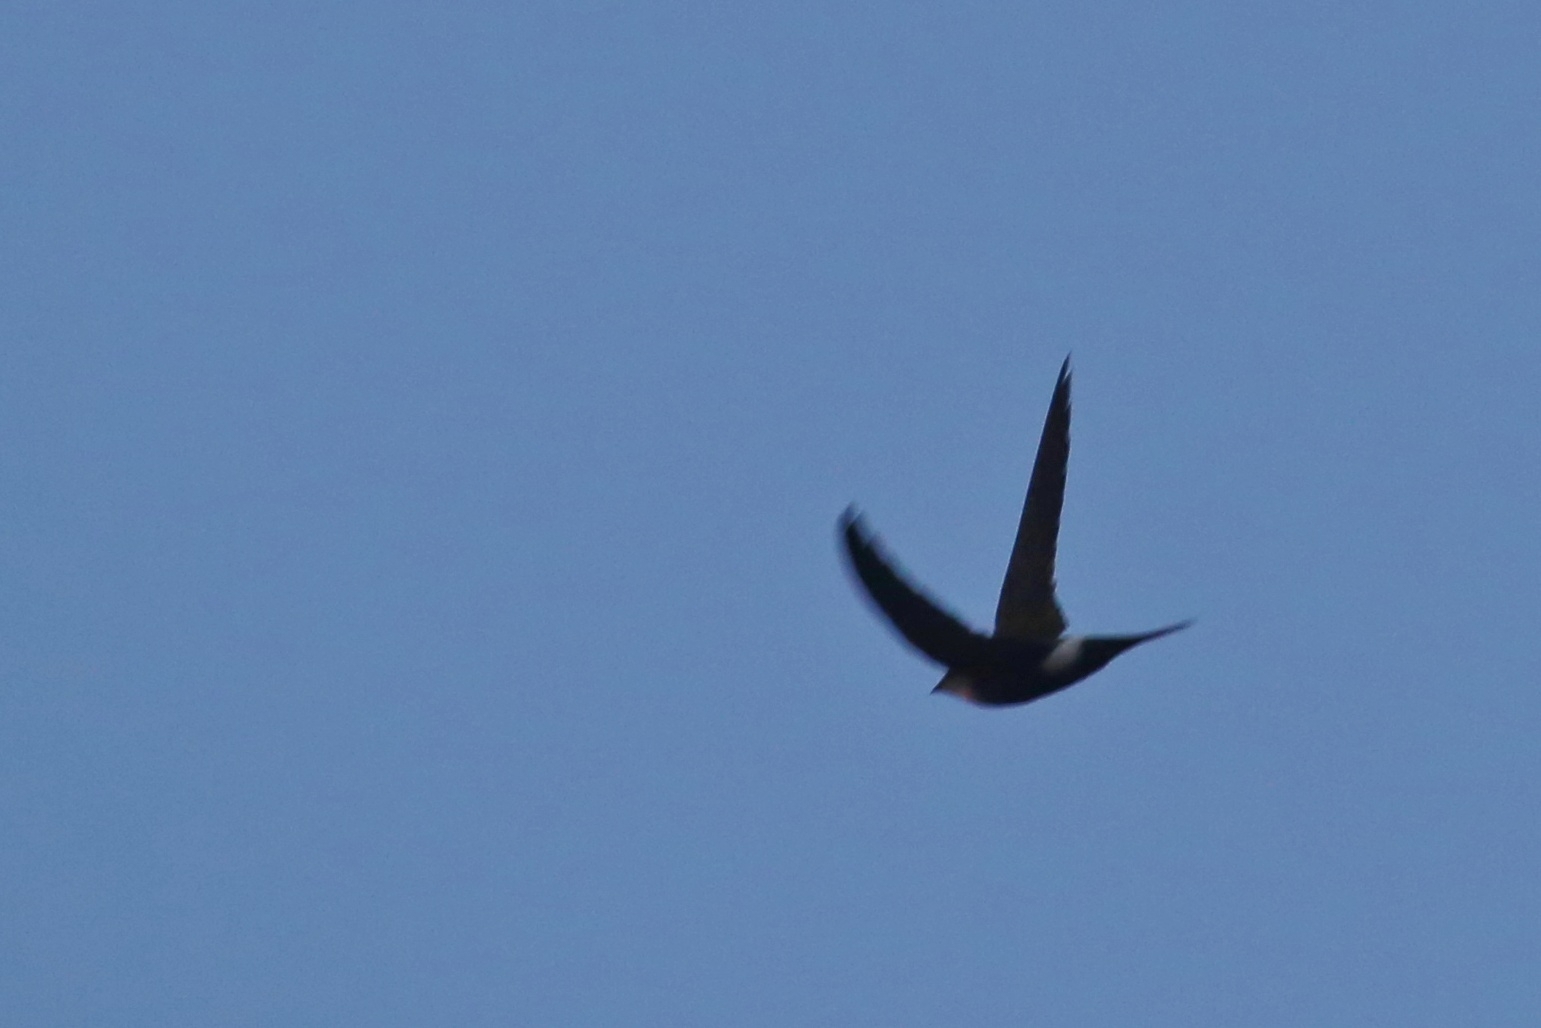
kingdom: Animalia
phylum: Chordata
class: Aves
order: Apodiformes
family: Apodidae
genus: Apus
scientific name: Apus pacificus
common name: Pacific swift
